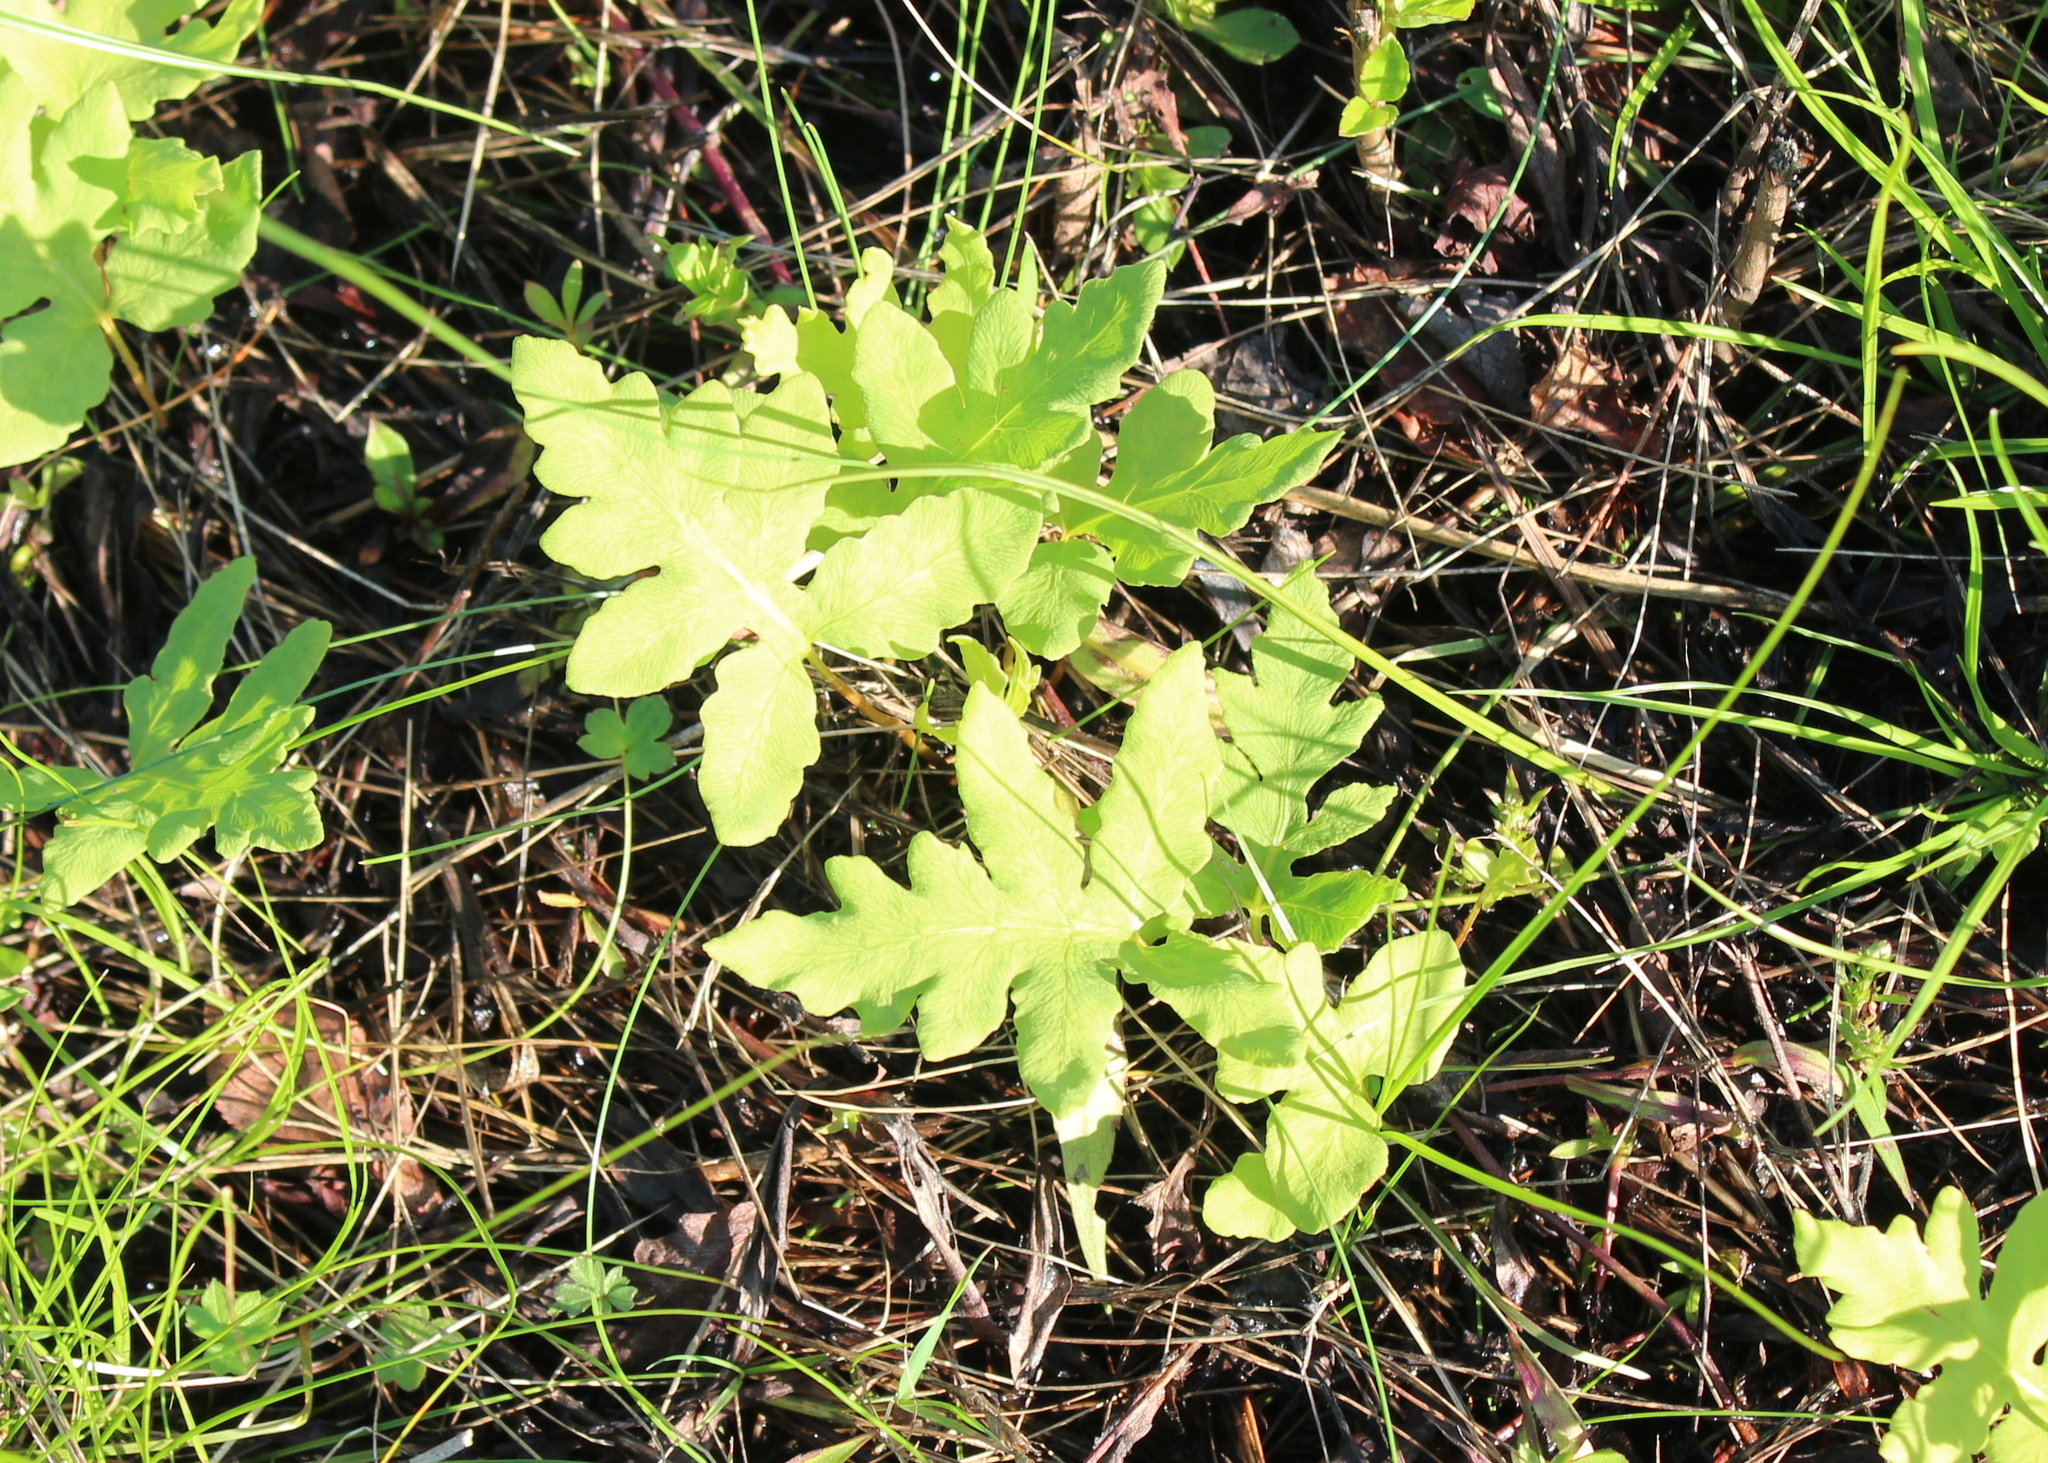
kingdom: Plantae
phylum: Tracheophyta
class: Polypodiopsida
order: Polypodiales
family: Onocleaceae
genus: Onoclea
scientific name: Onoclea sensibilis
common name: Sensitive fern
